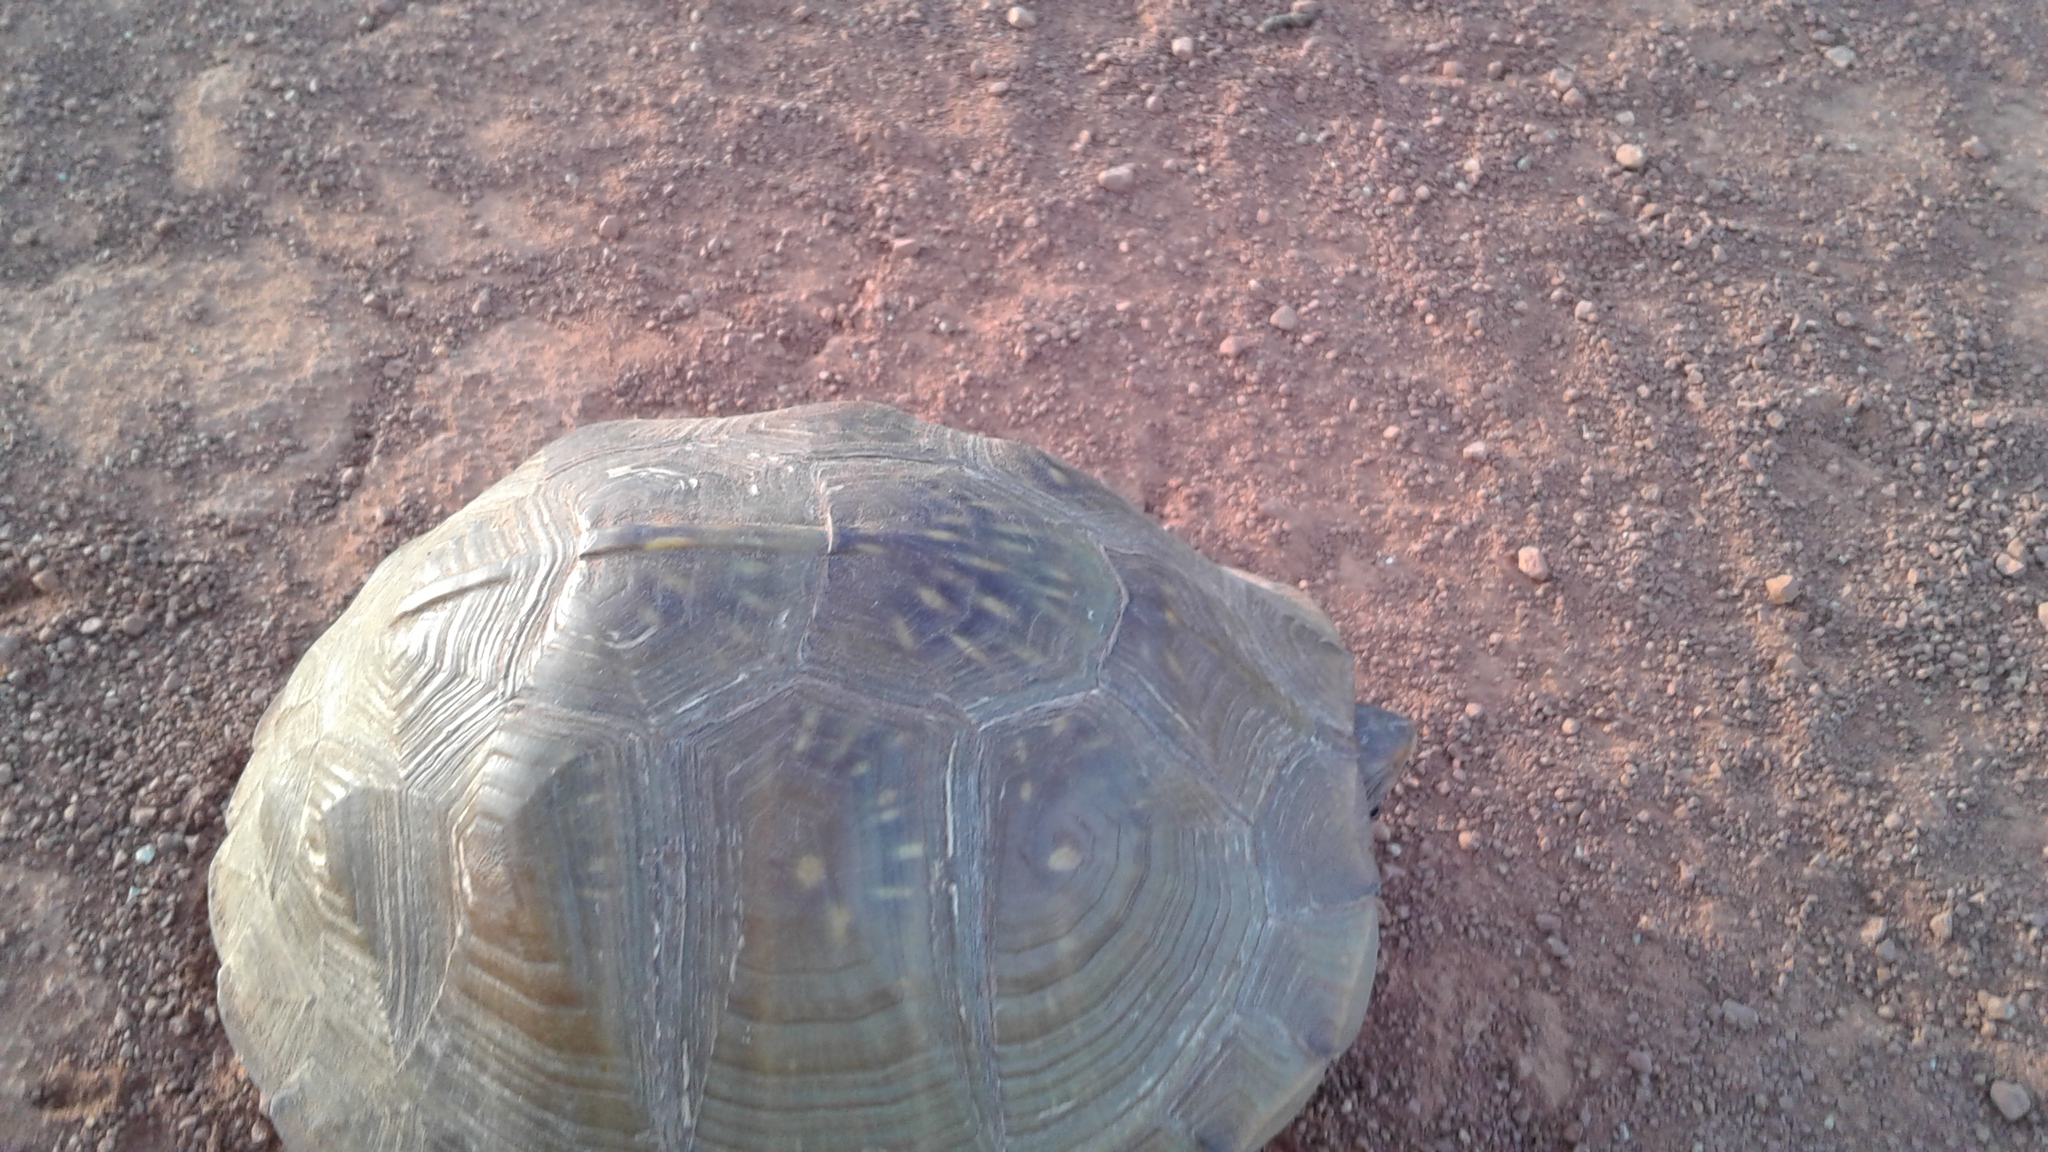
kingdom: Animalia
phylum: Chordata
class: Testudines
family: Emydidae
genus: Terrapene
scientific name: Terrapene carolina
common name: Common box turtle
